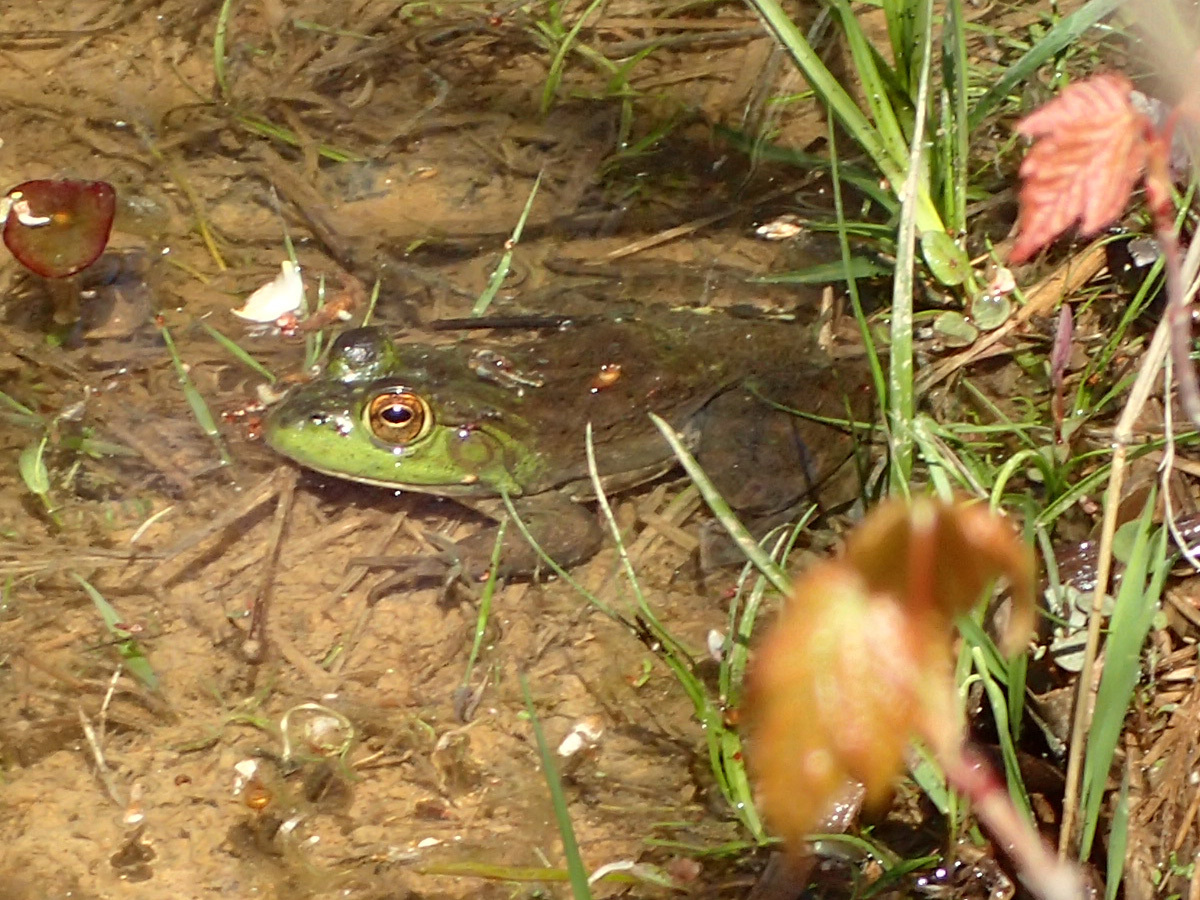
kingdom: Animalia
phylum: Chordata
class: Amphibia
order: Anura
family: Ranidae
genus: Lithobates
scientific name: Lithobates catesbeianus
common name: American bullfrog
